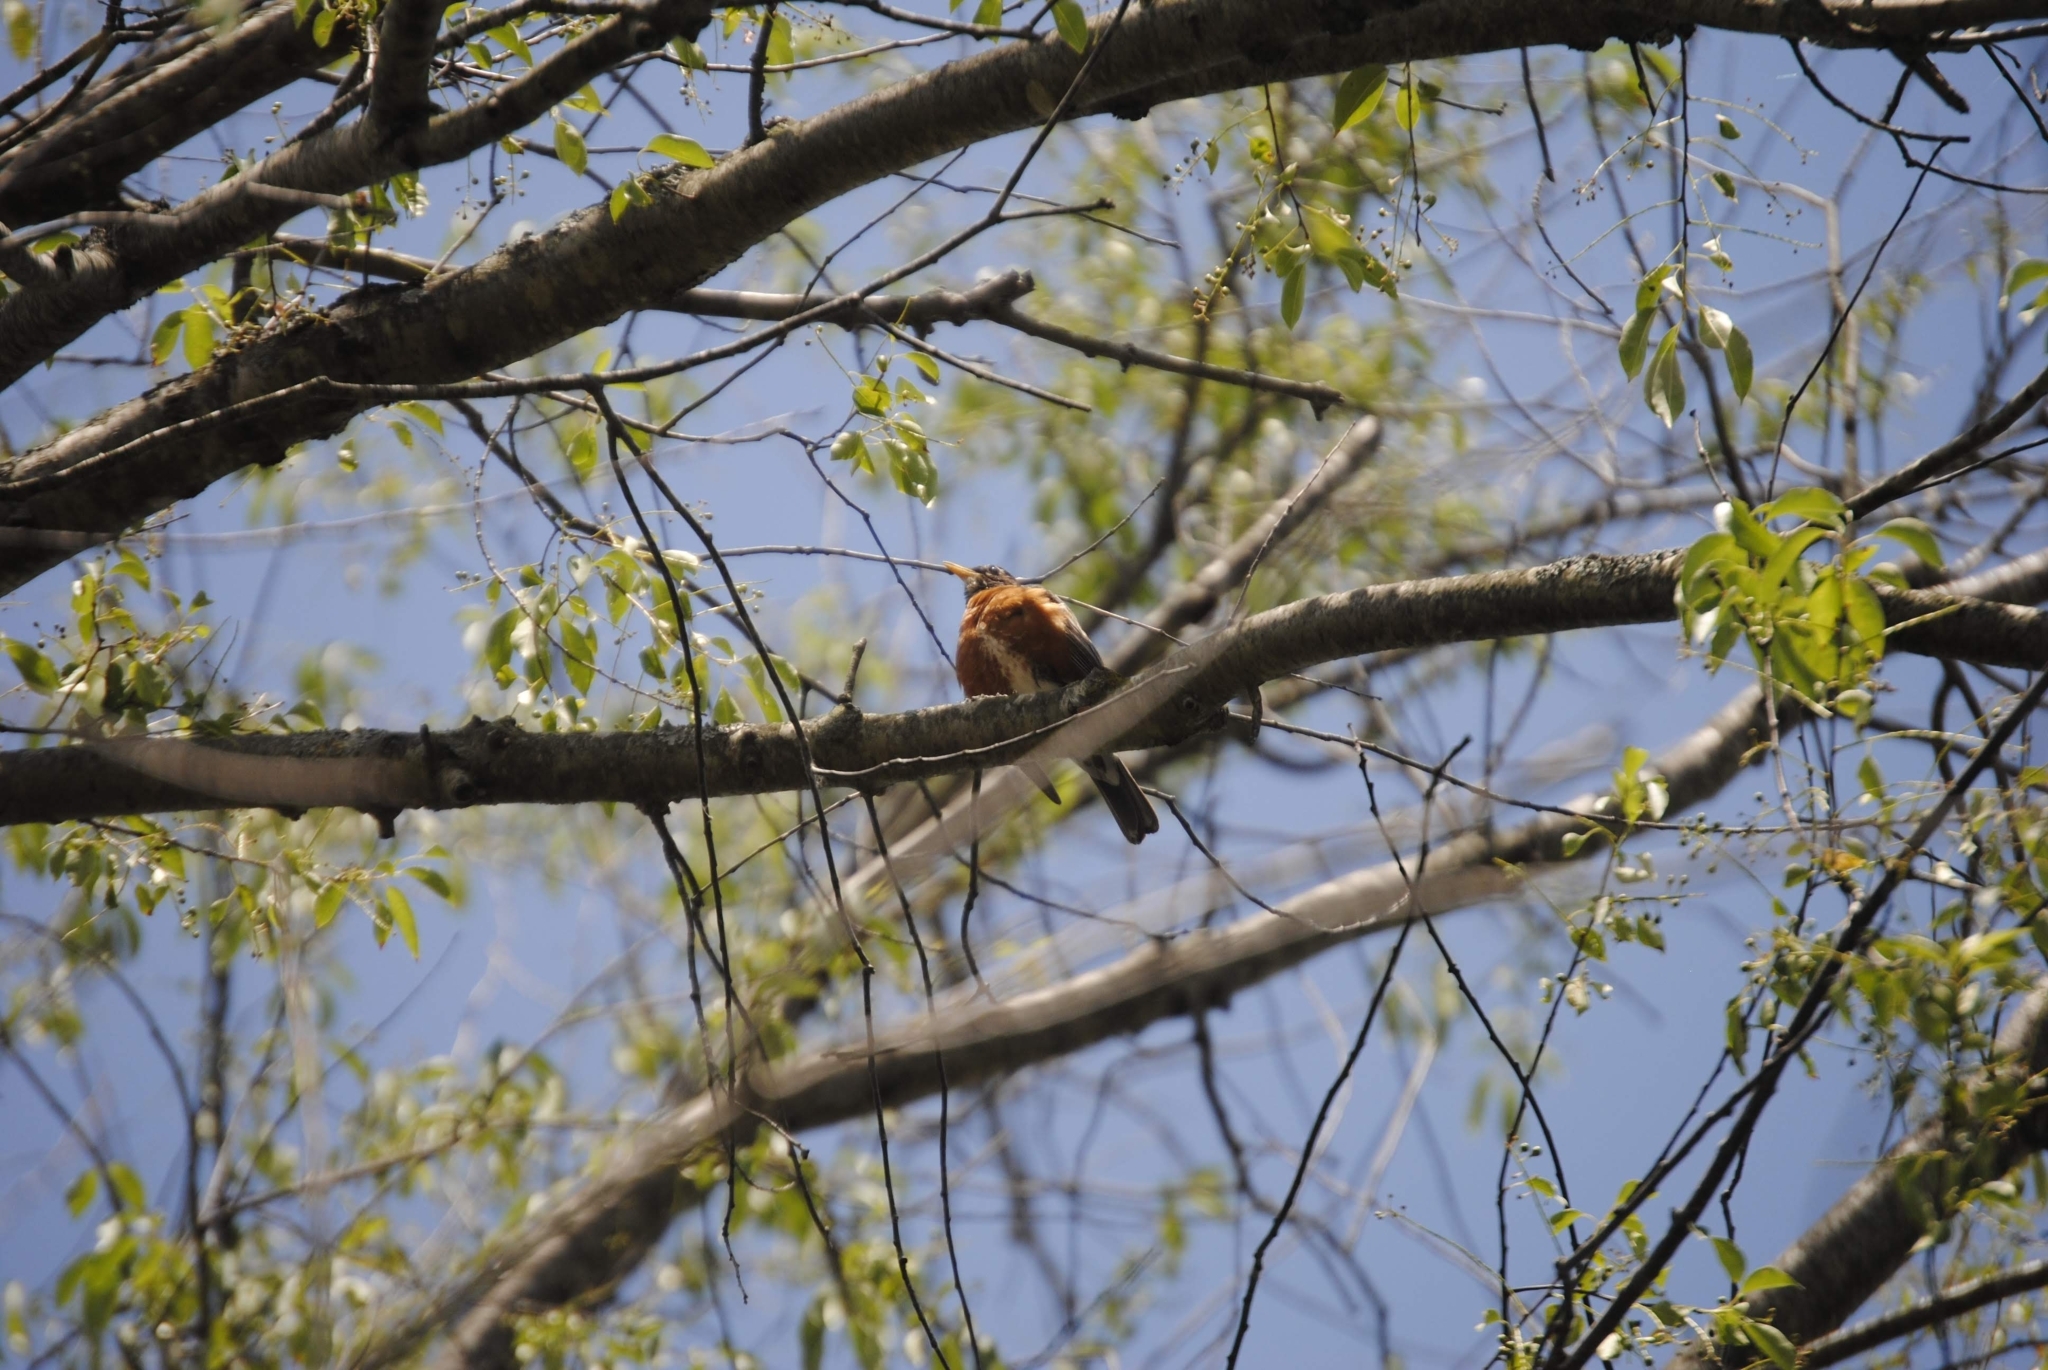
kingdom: Animalia
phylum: Chordata
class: Aves
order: Passeriformes
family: Turdidae
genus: Turdus
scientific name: Turdus migratorius
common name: American robin
